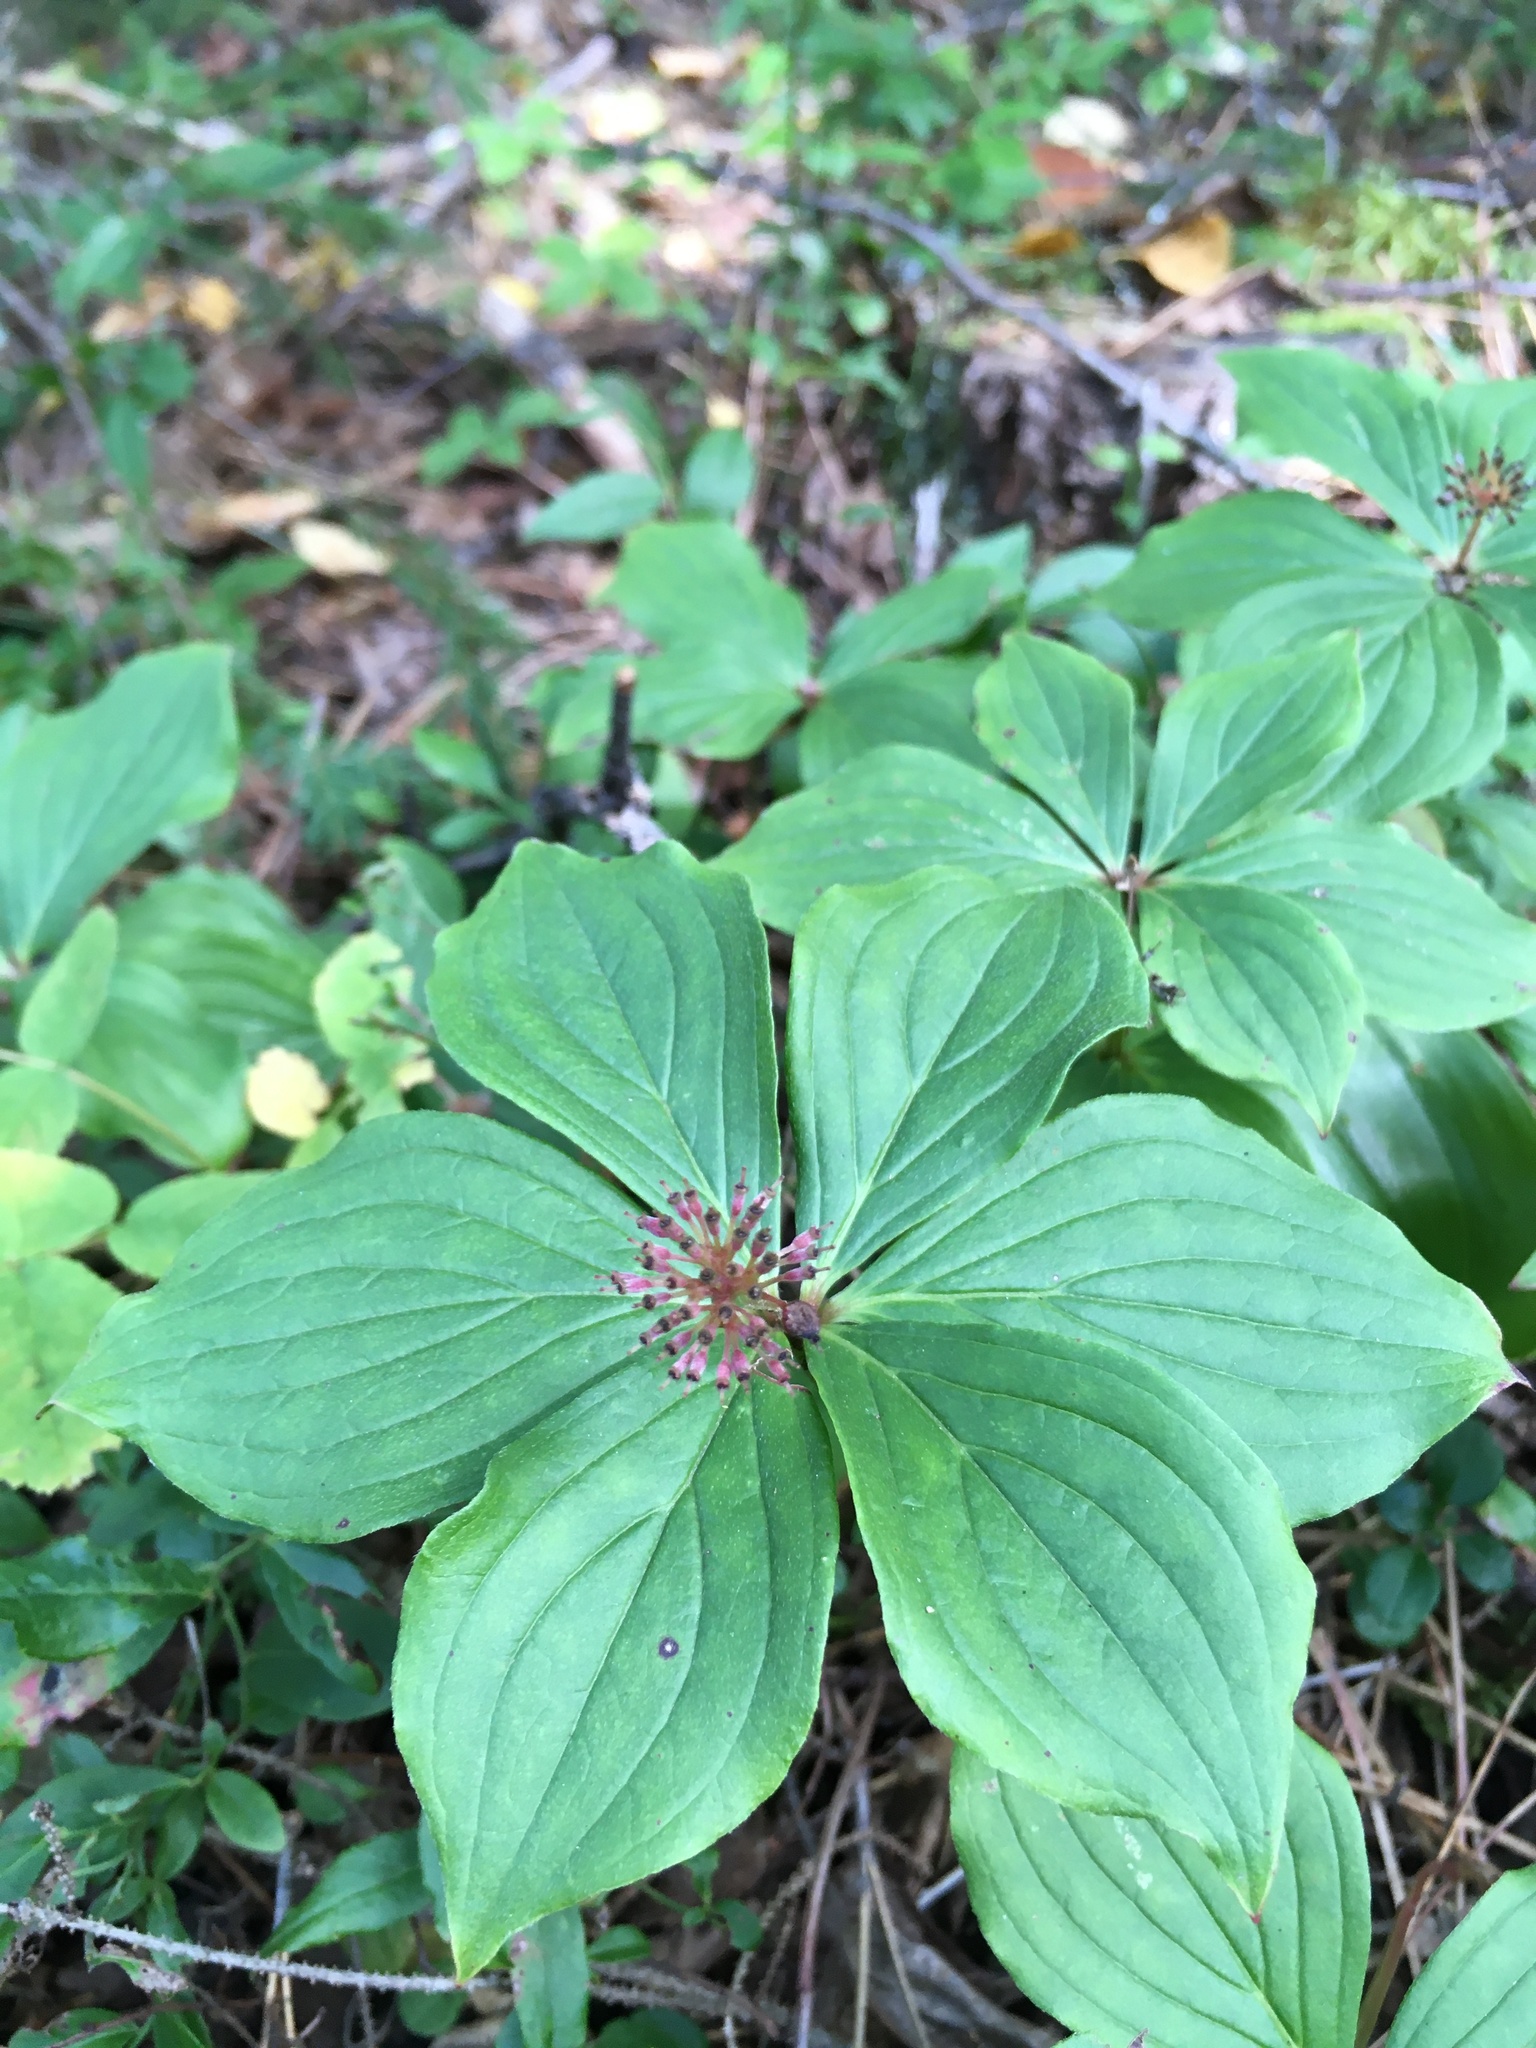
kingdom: Plantae
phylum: Tracheophyta
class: Magnoliopsida
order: Cornales
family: Cornaceae
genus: Cornus
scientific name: Cornus canadensis
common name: Creeping dogwood
